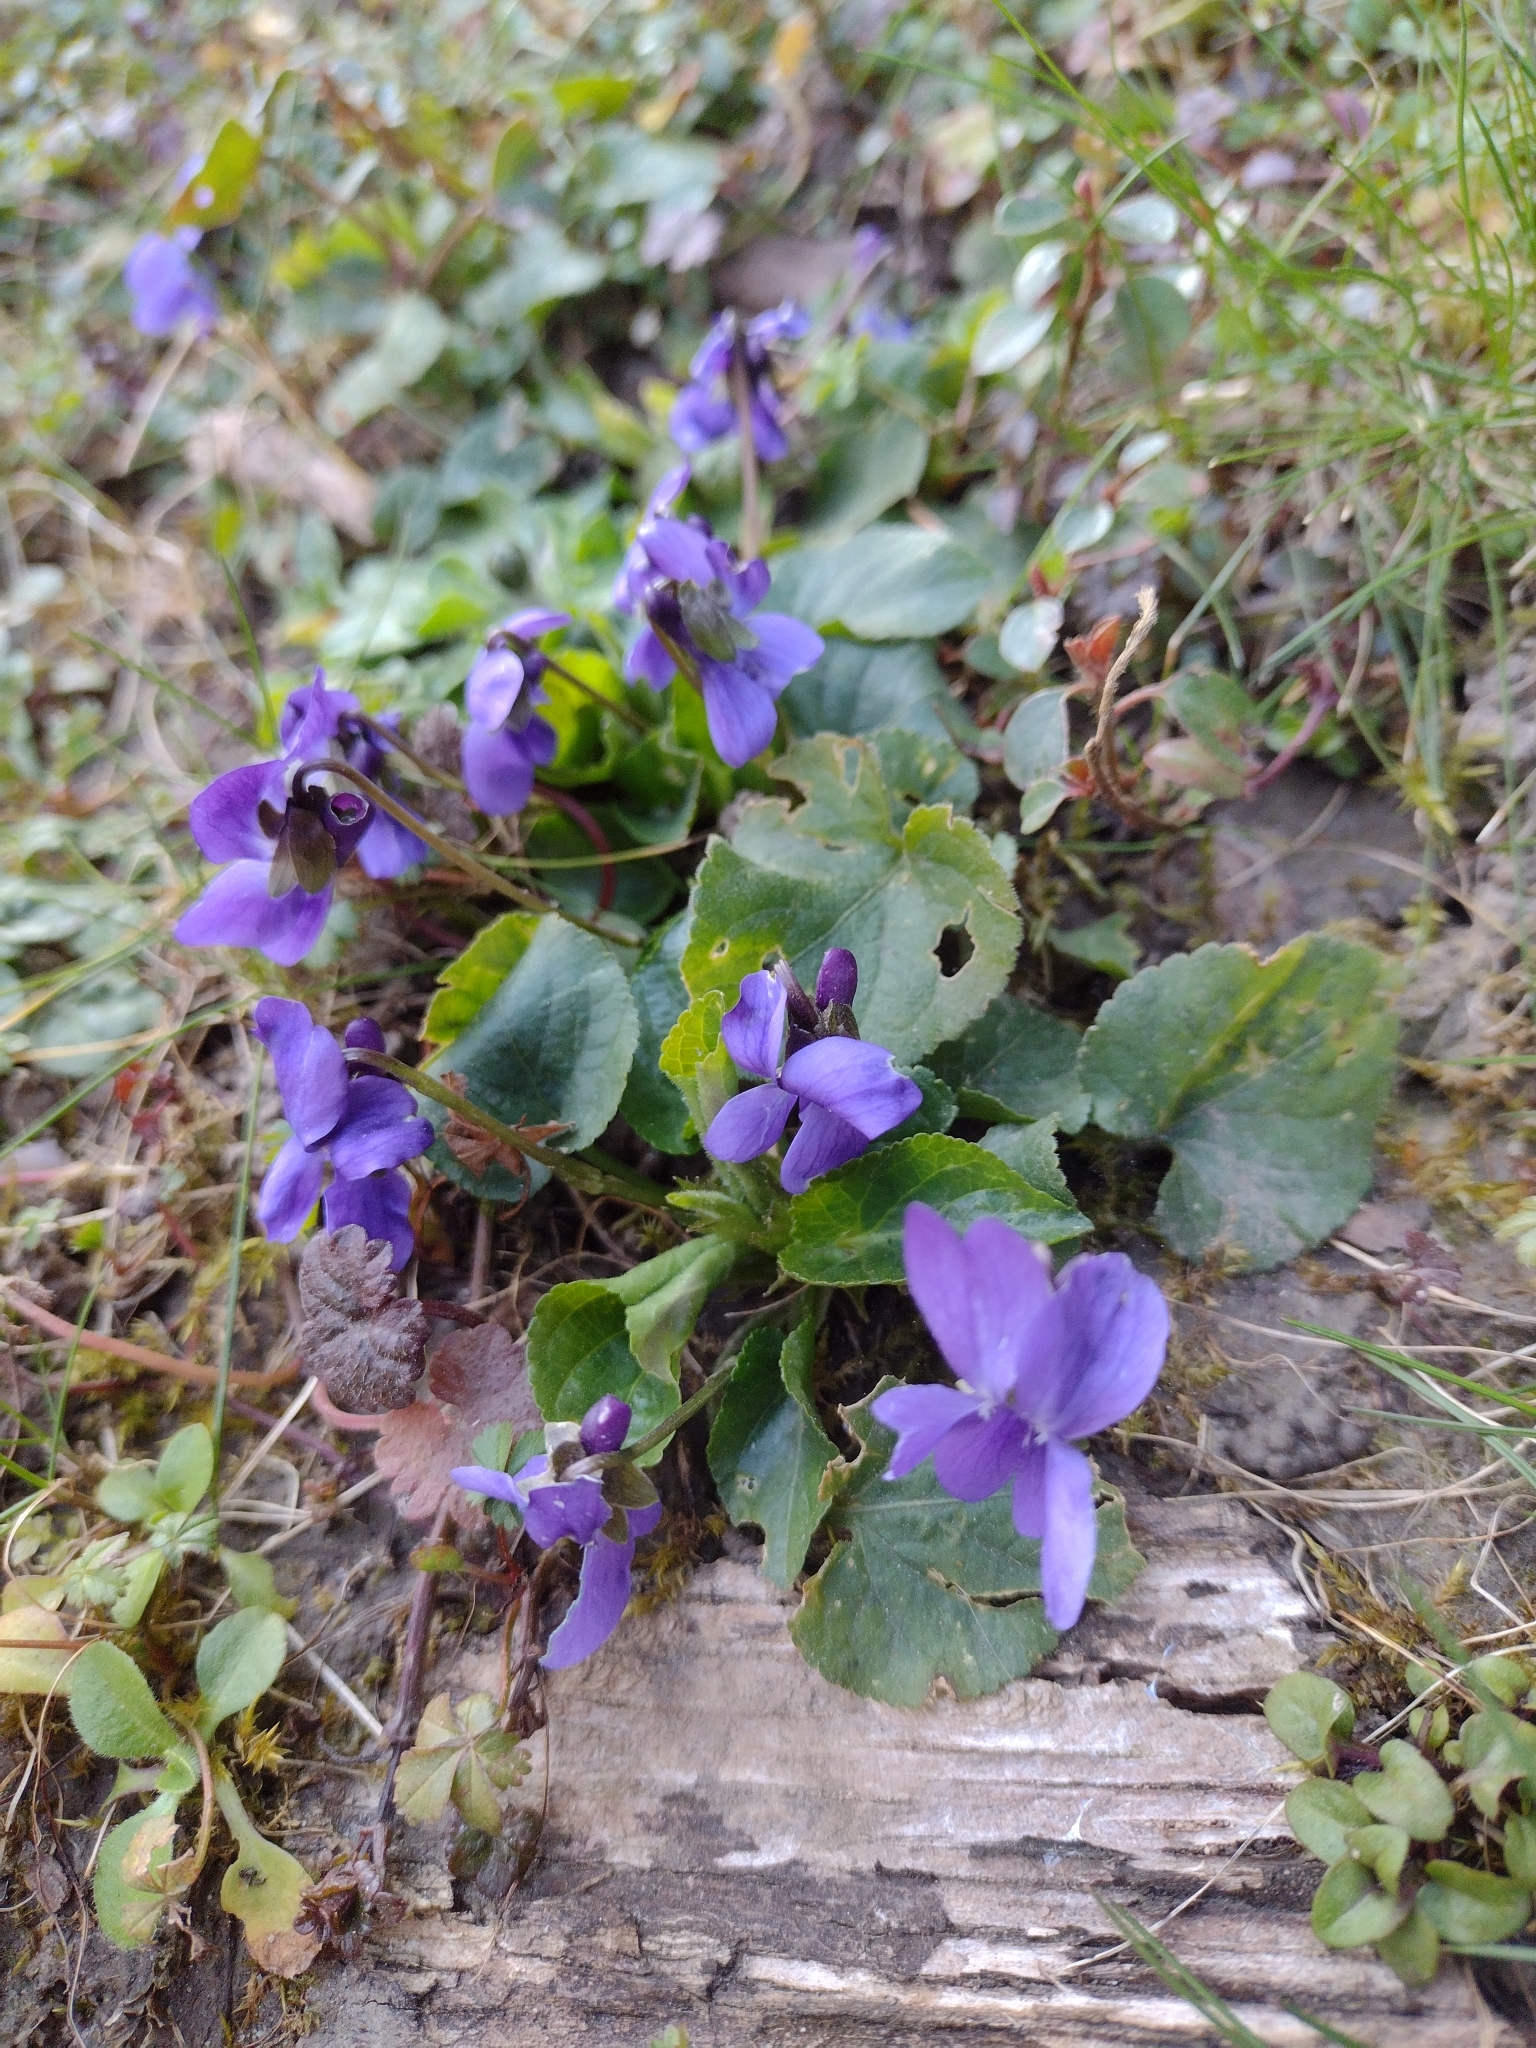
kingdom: Plantae
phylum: Tracheophyta
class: Magnoliopsida
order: Malpighiales
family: Violaceae
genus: Viola
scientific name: Viola odorata
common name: Sweet violet
